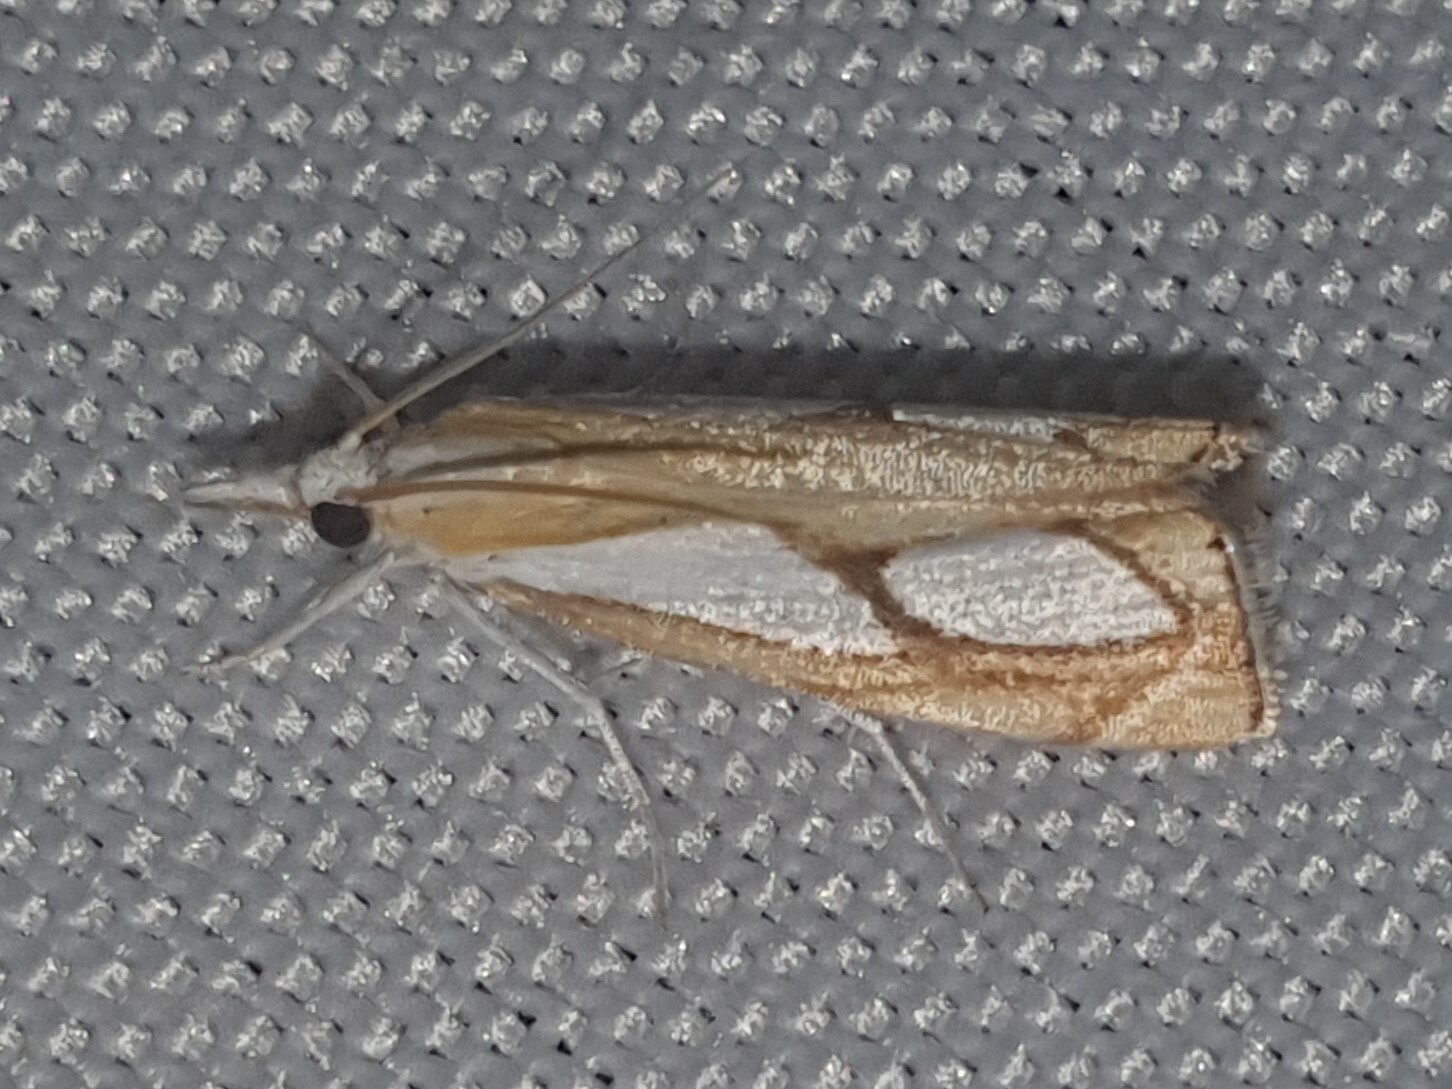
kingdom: Animalia
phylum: Arthropoda
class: Insecta
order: Lepidoptera
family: Crambidae
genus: Catoptria
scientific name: Catoptria pinella
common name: Pearl grass-veneer
